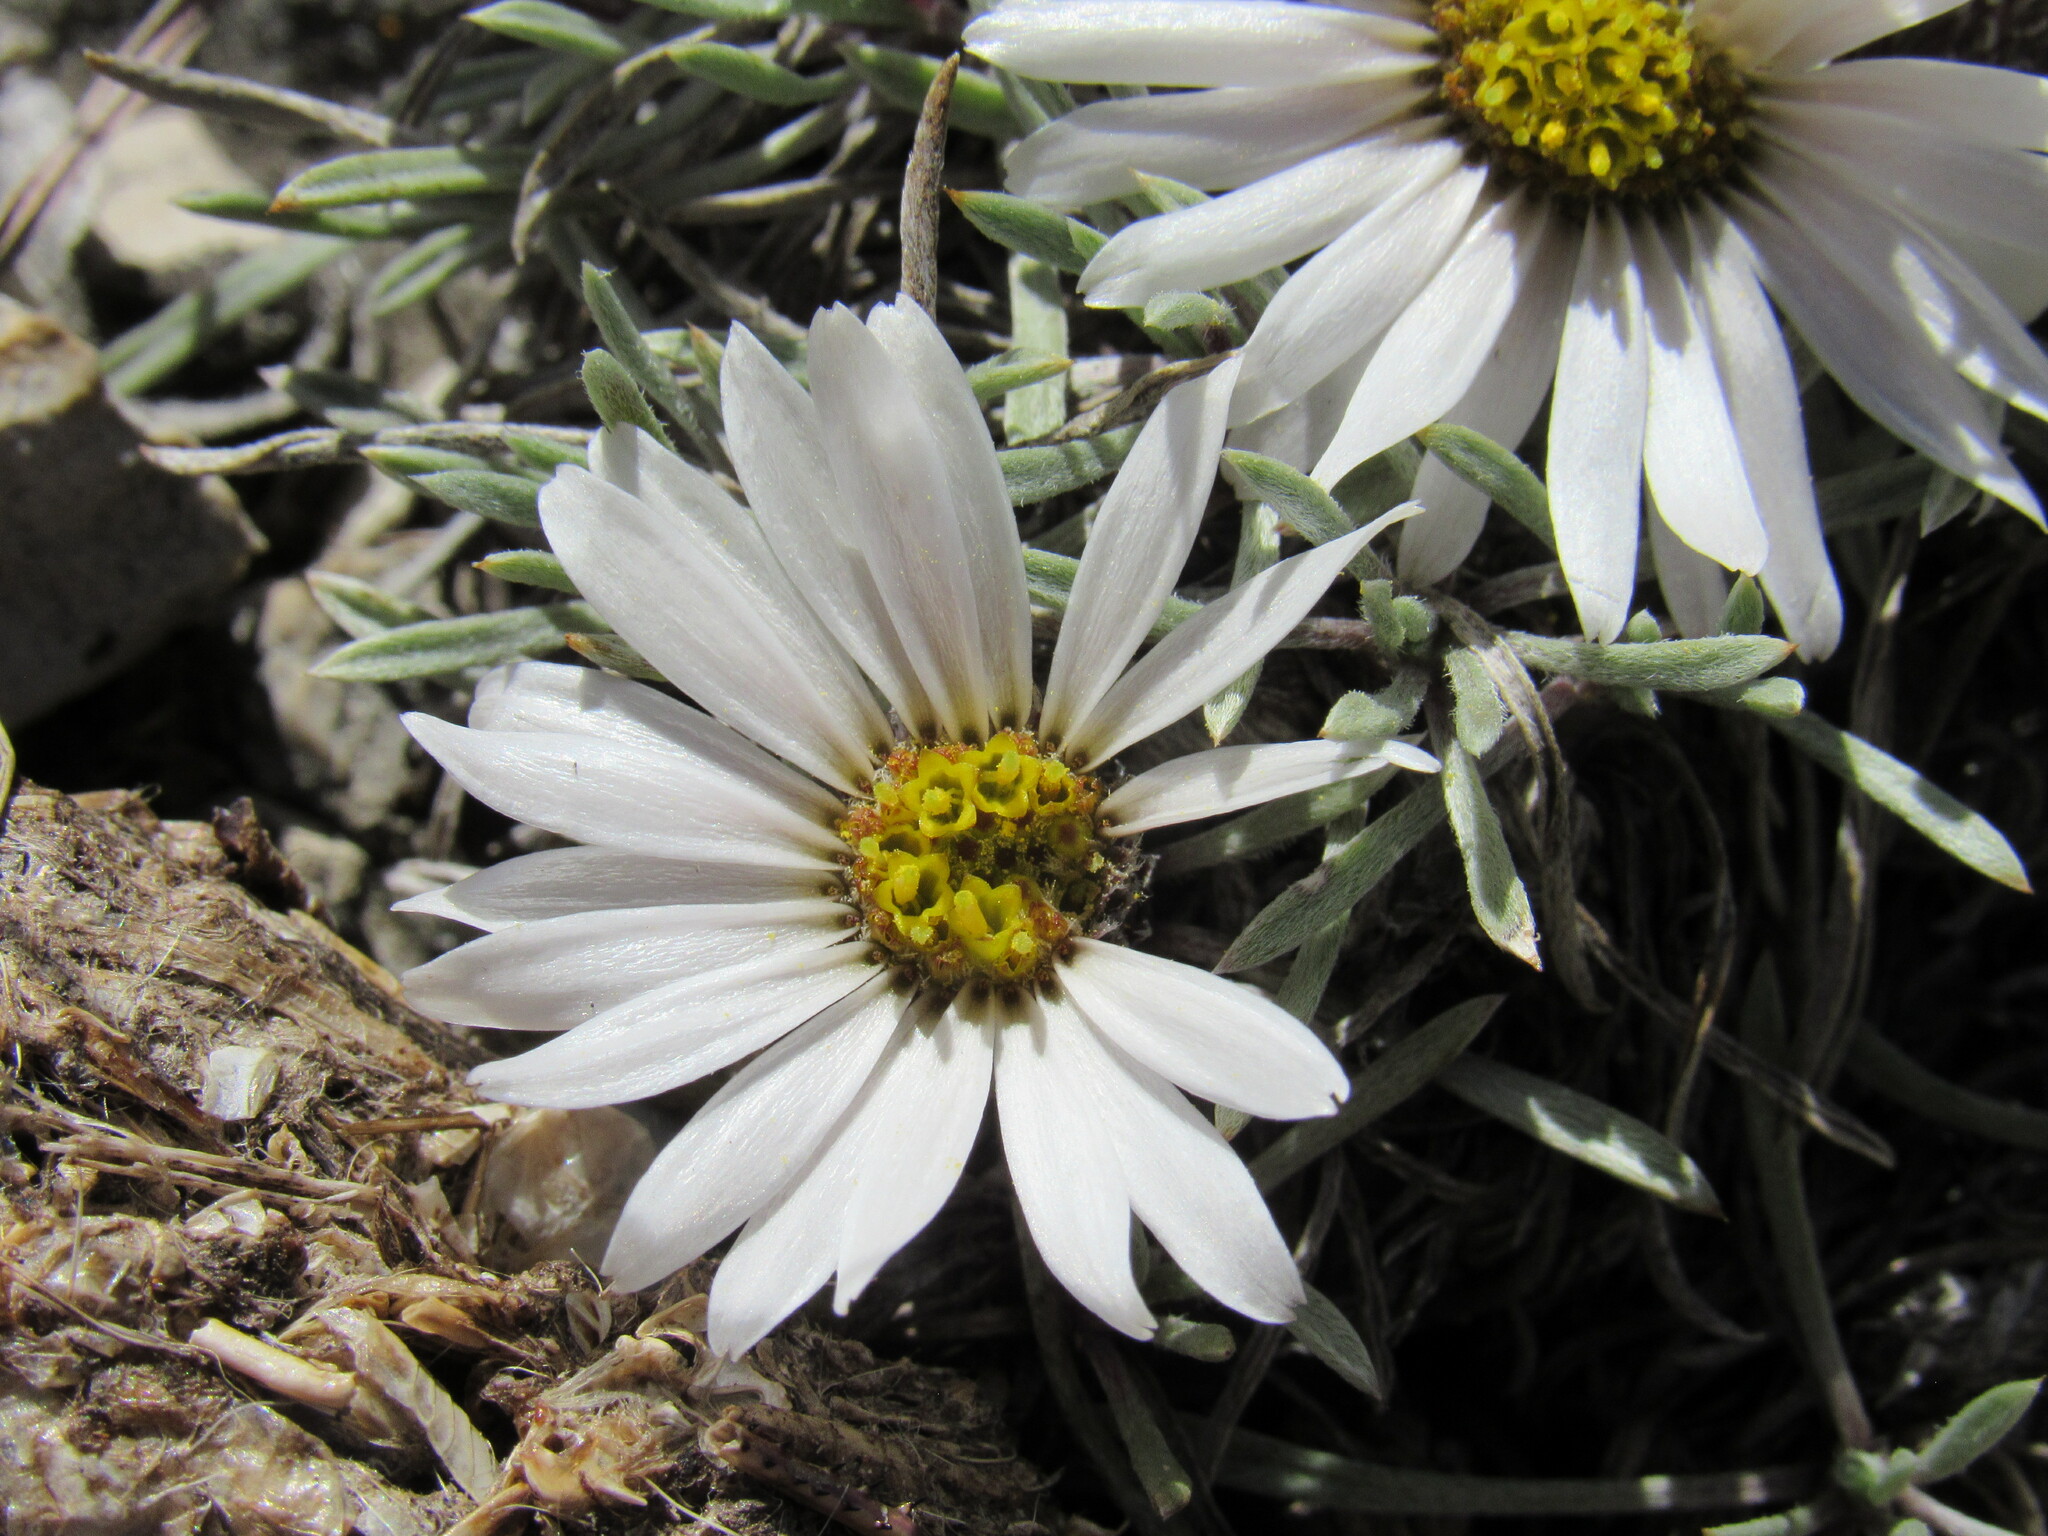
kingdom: Plantae
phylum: Tracheophyta
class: Magnoliopsida
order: Asterales
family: Asteraceae
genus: Townsendia
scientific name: Townsendia hookeri
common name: Hooker's townsend daisy
